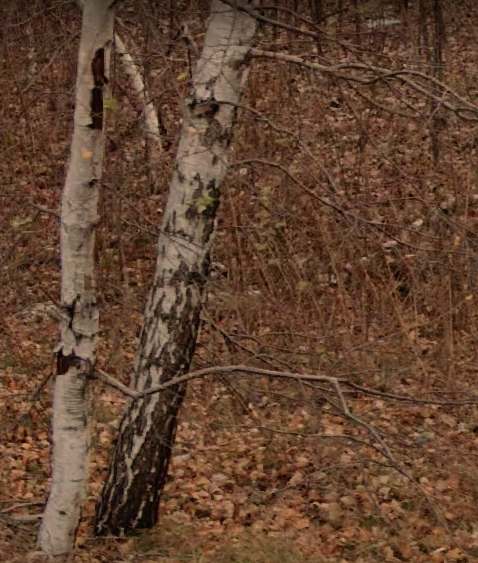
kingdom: Plantae
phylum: Tracheophyta
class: Magnoliopsida
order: Fagales
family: Betulaceae
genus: Betula
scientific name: Betula pendula
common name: Silver birch
